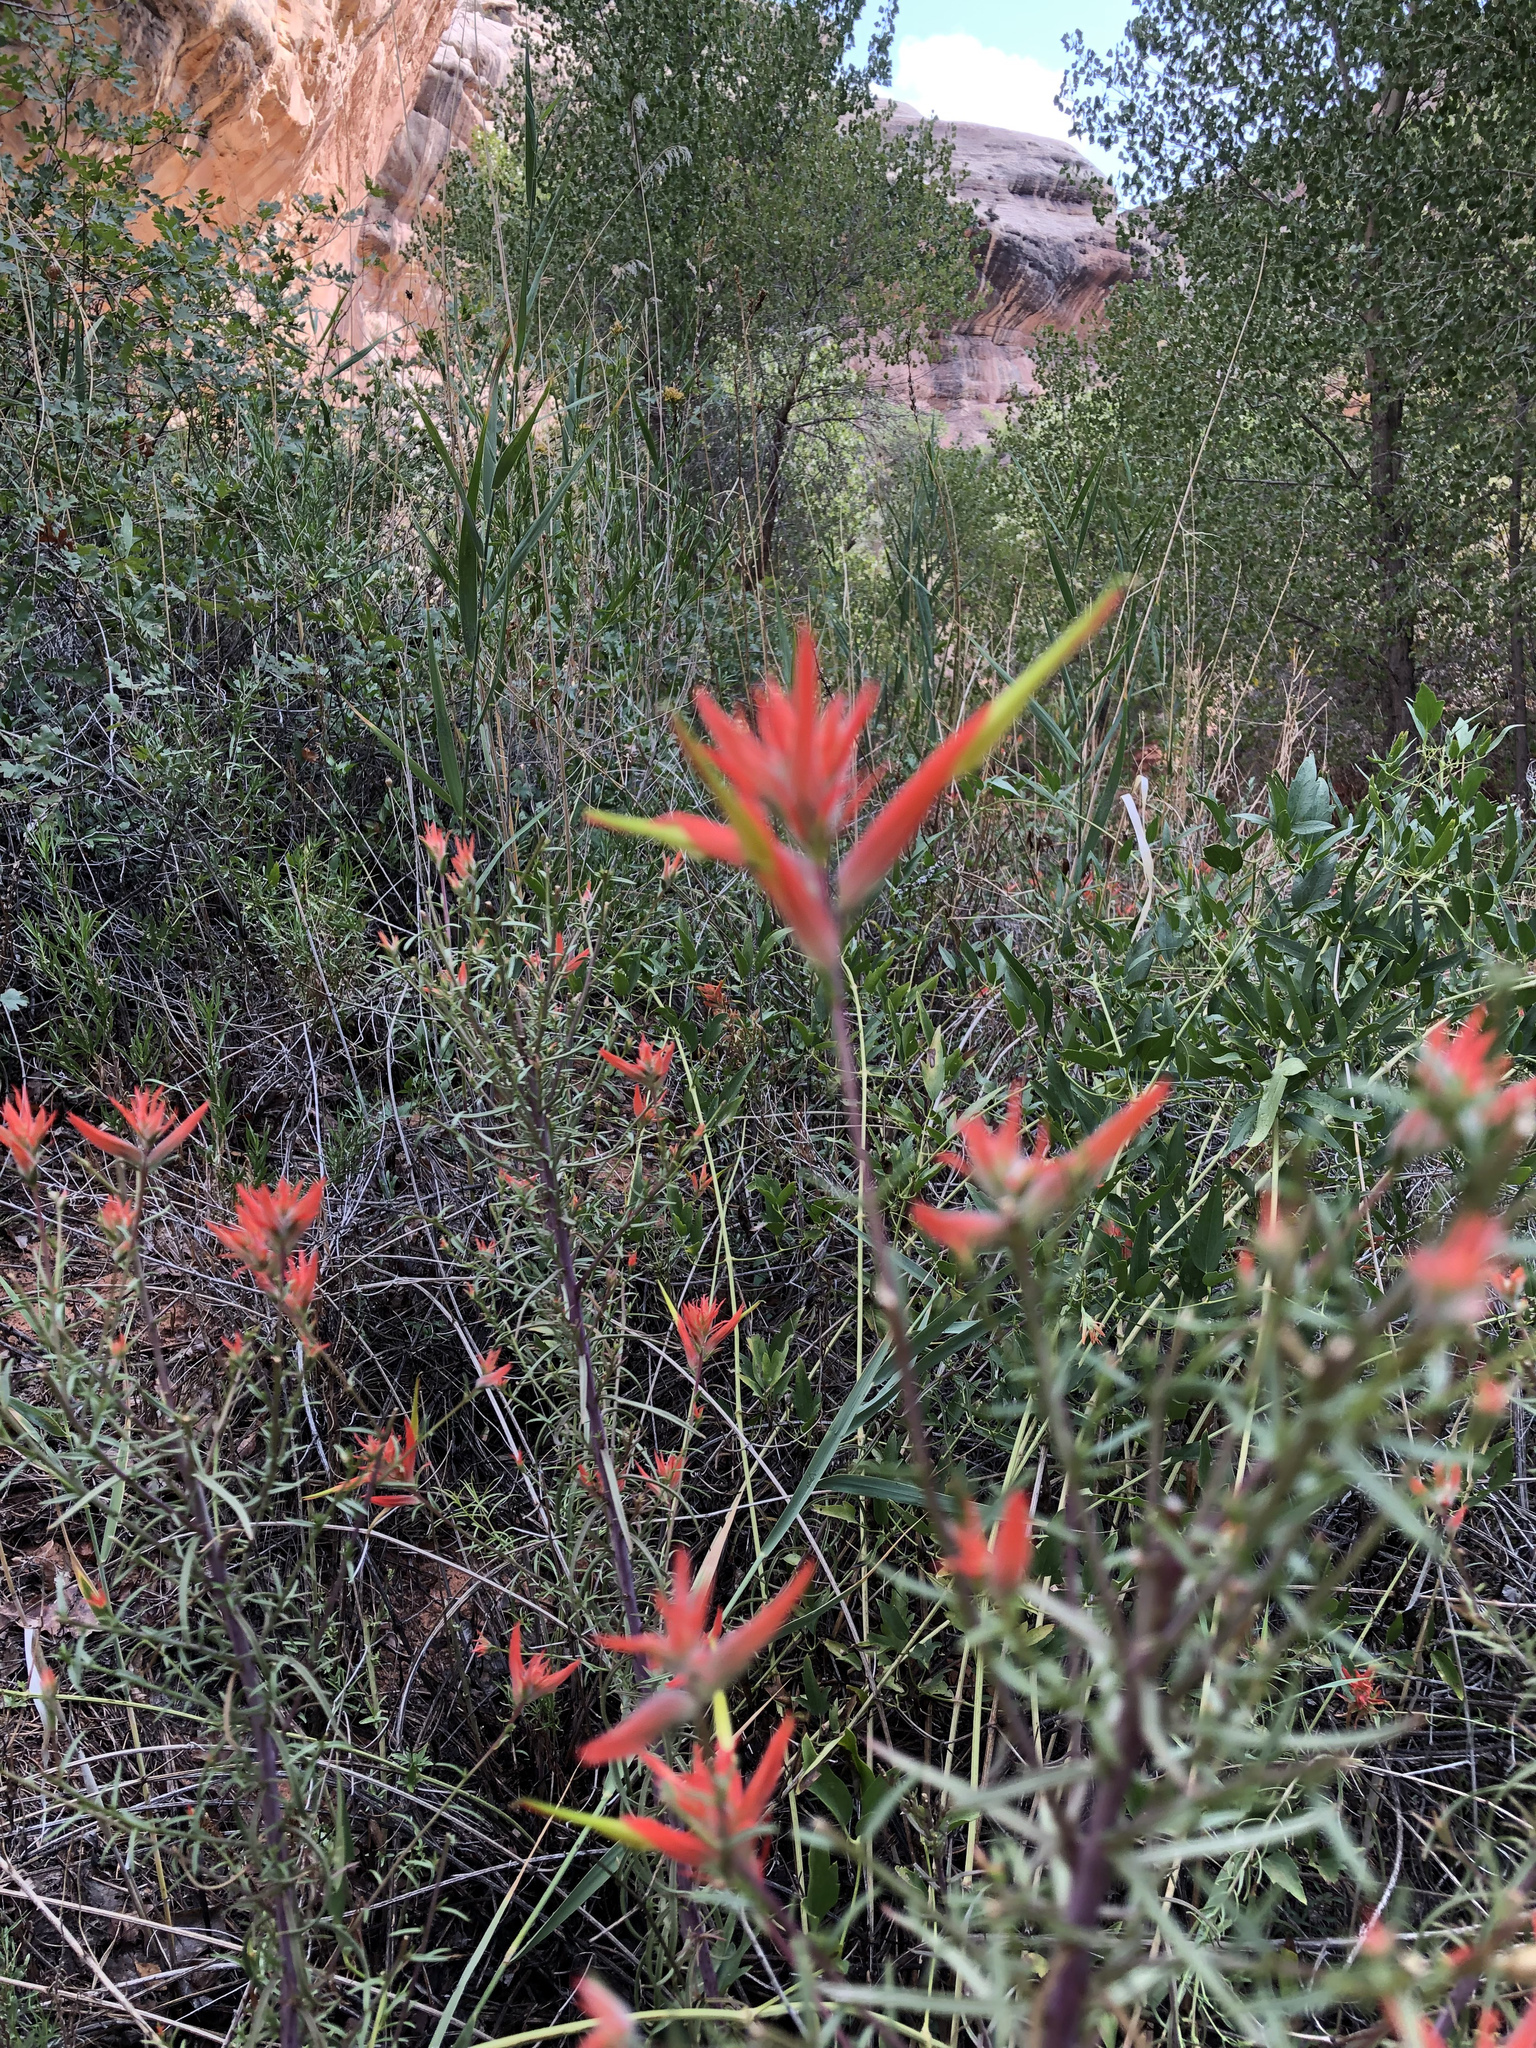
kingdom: Plantae
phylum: Tracheophyta
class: Magnoliopsida
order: Lamiales
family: Orobanchaceae
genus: Castilleja
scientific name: Castilleja linariifolia
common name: Wyoming paintbrush
